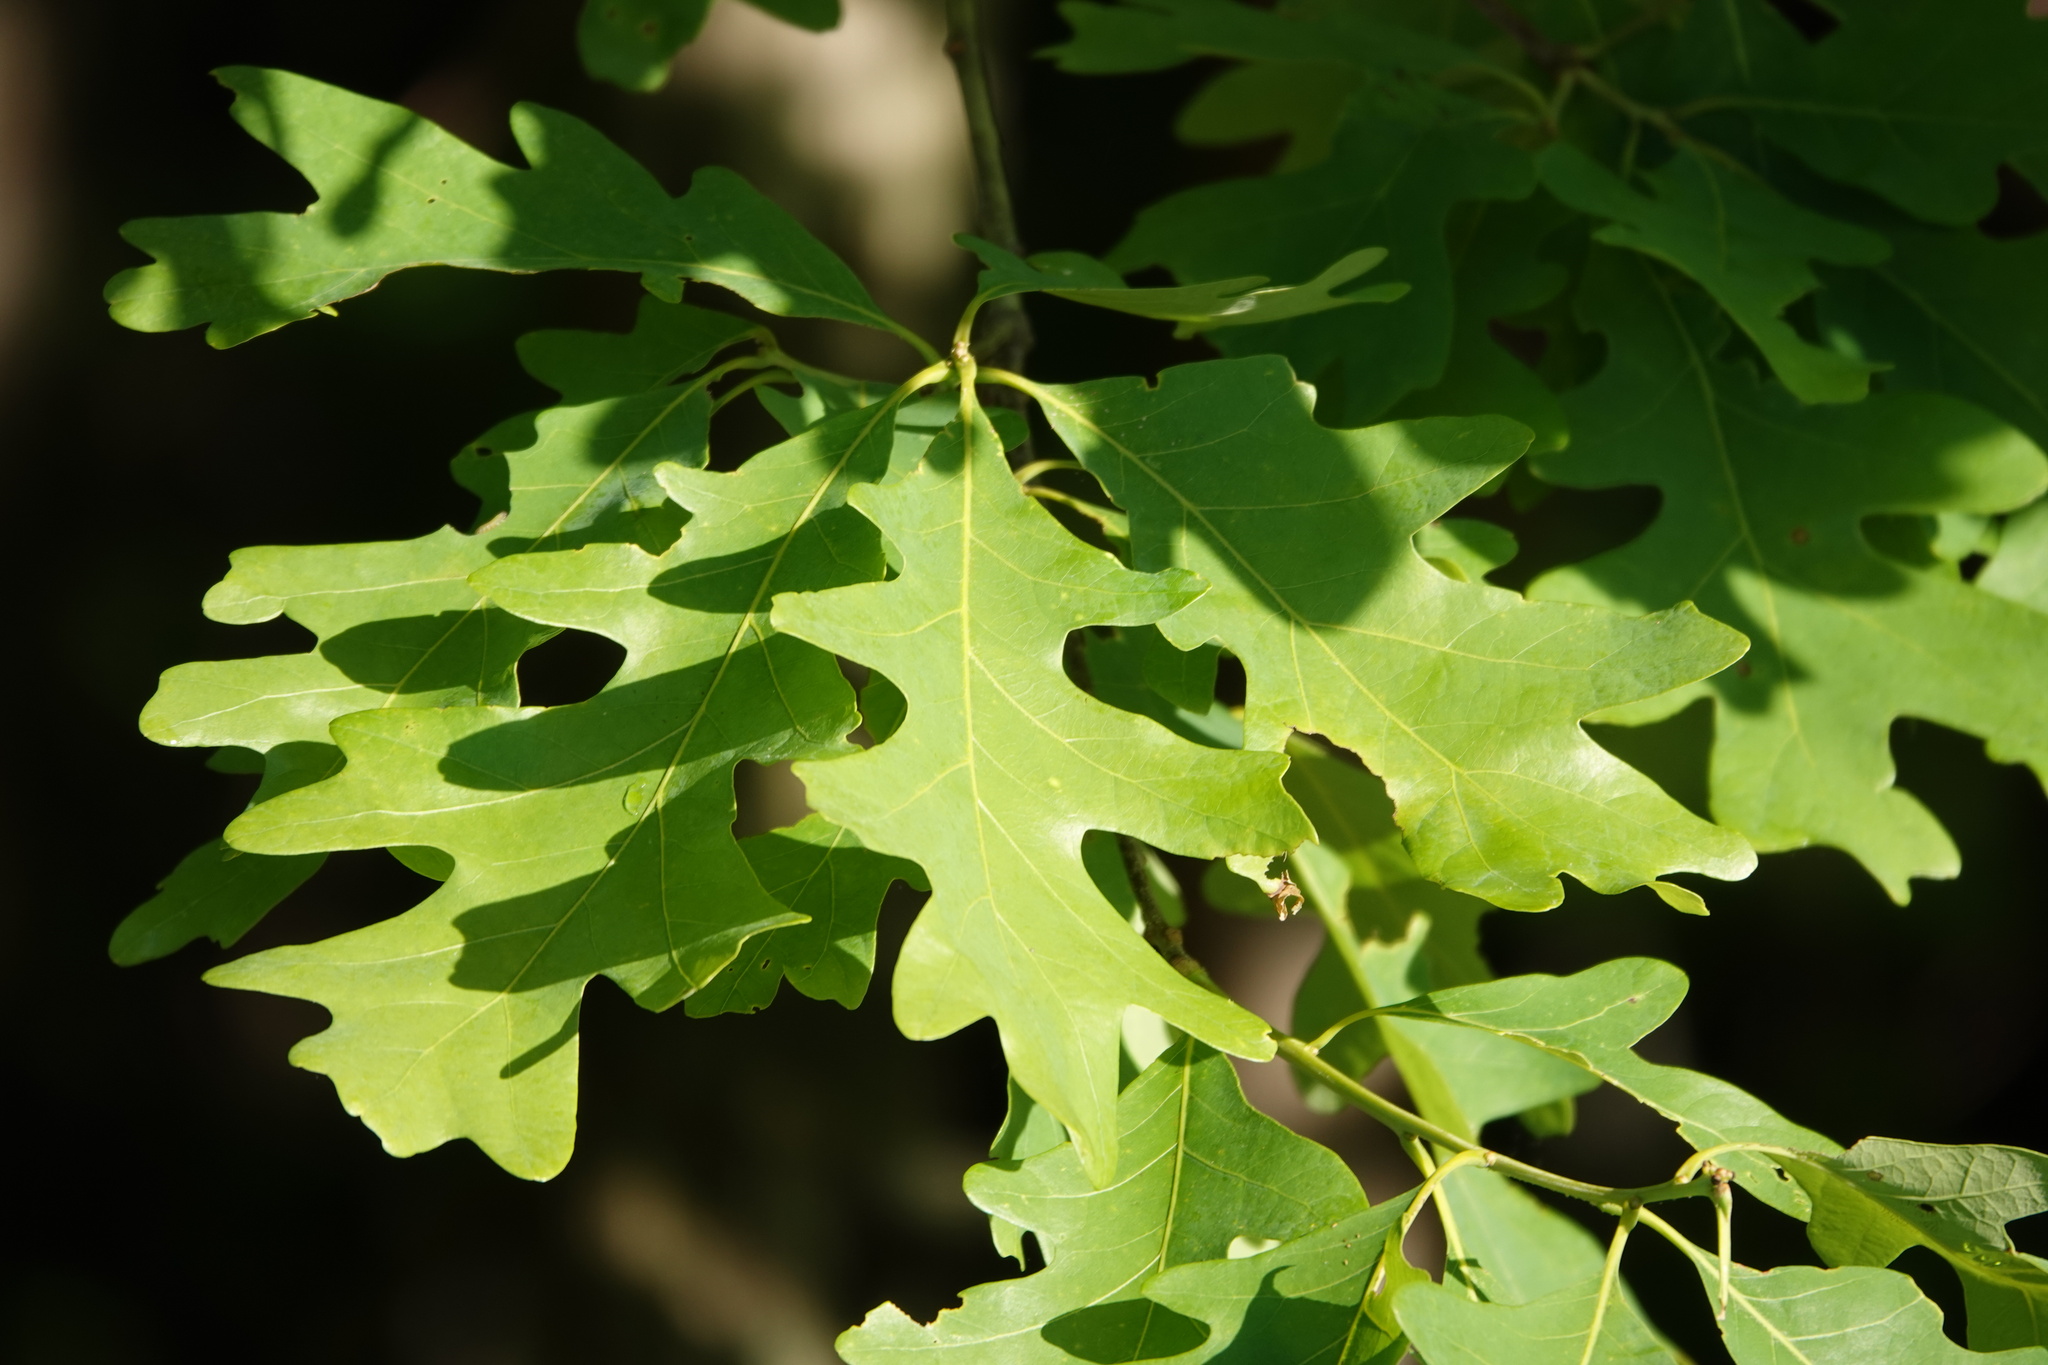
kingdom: Plantae
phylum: Tracheophyta
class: Magnoliopsida
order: Fagales
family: Fagaceae
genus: Quercus
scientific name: Quercus alba
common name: White oak
